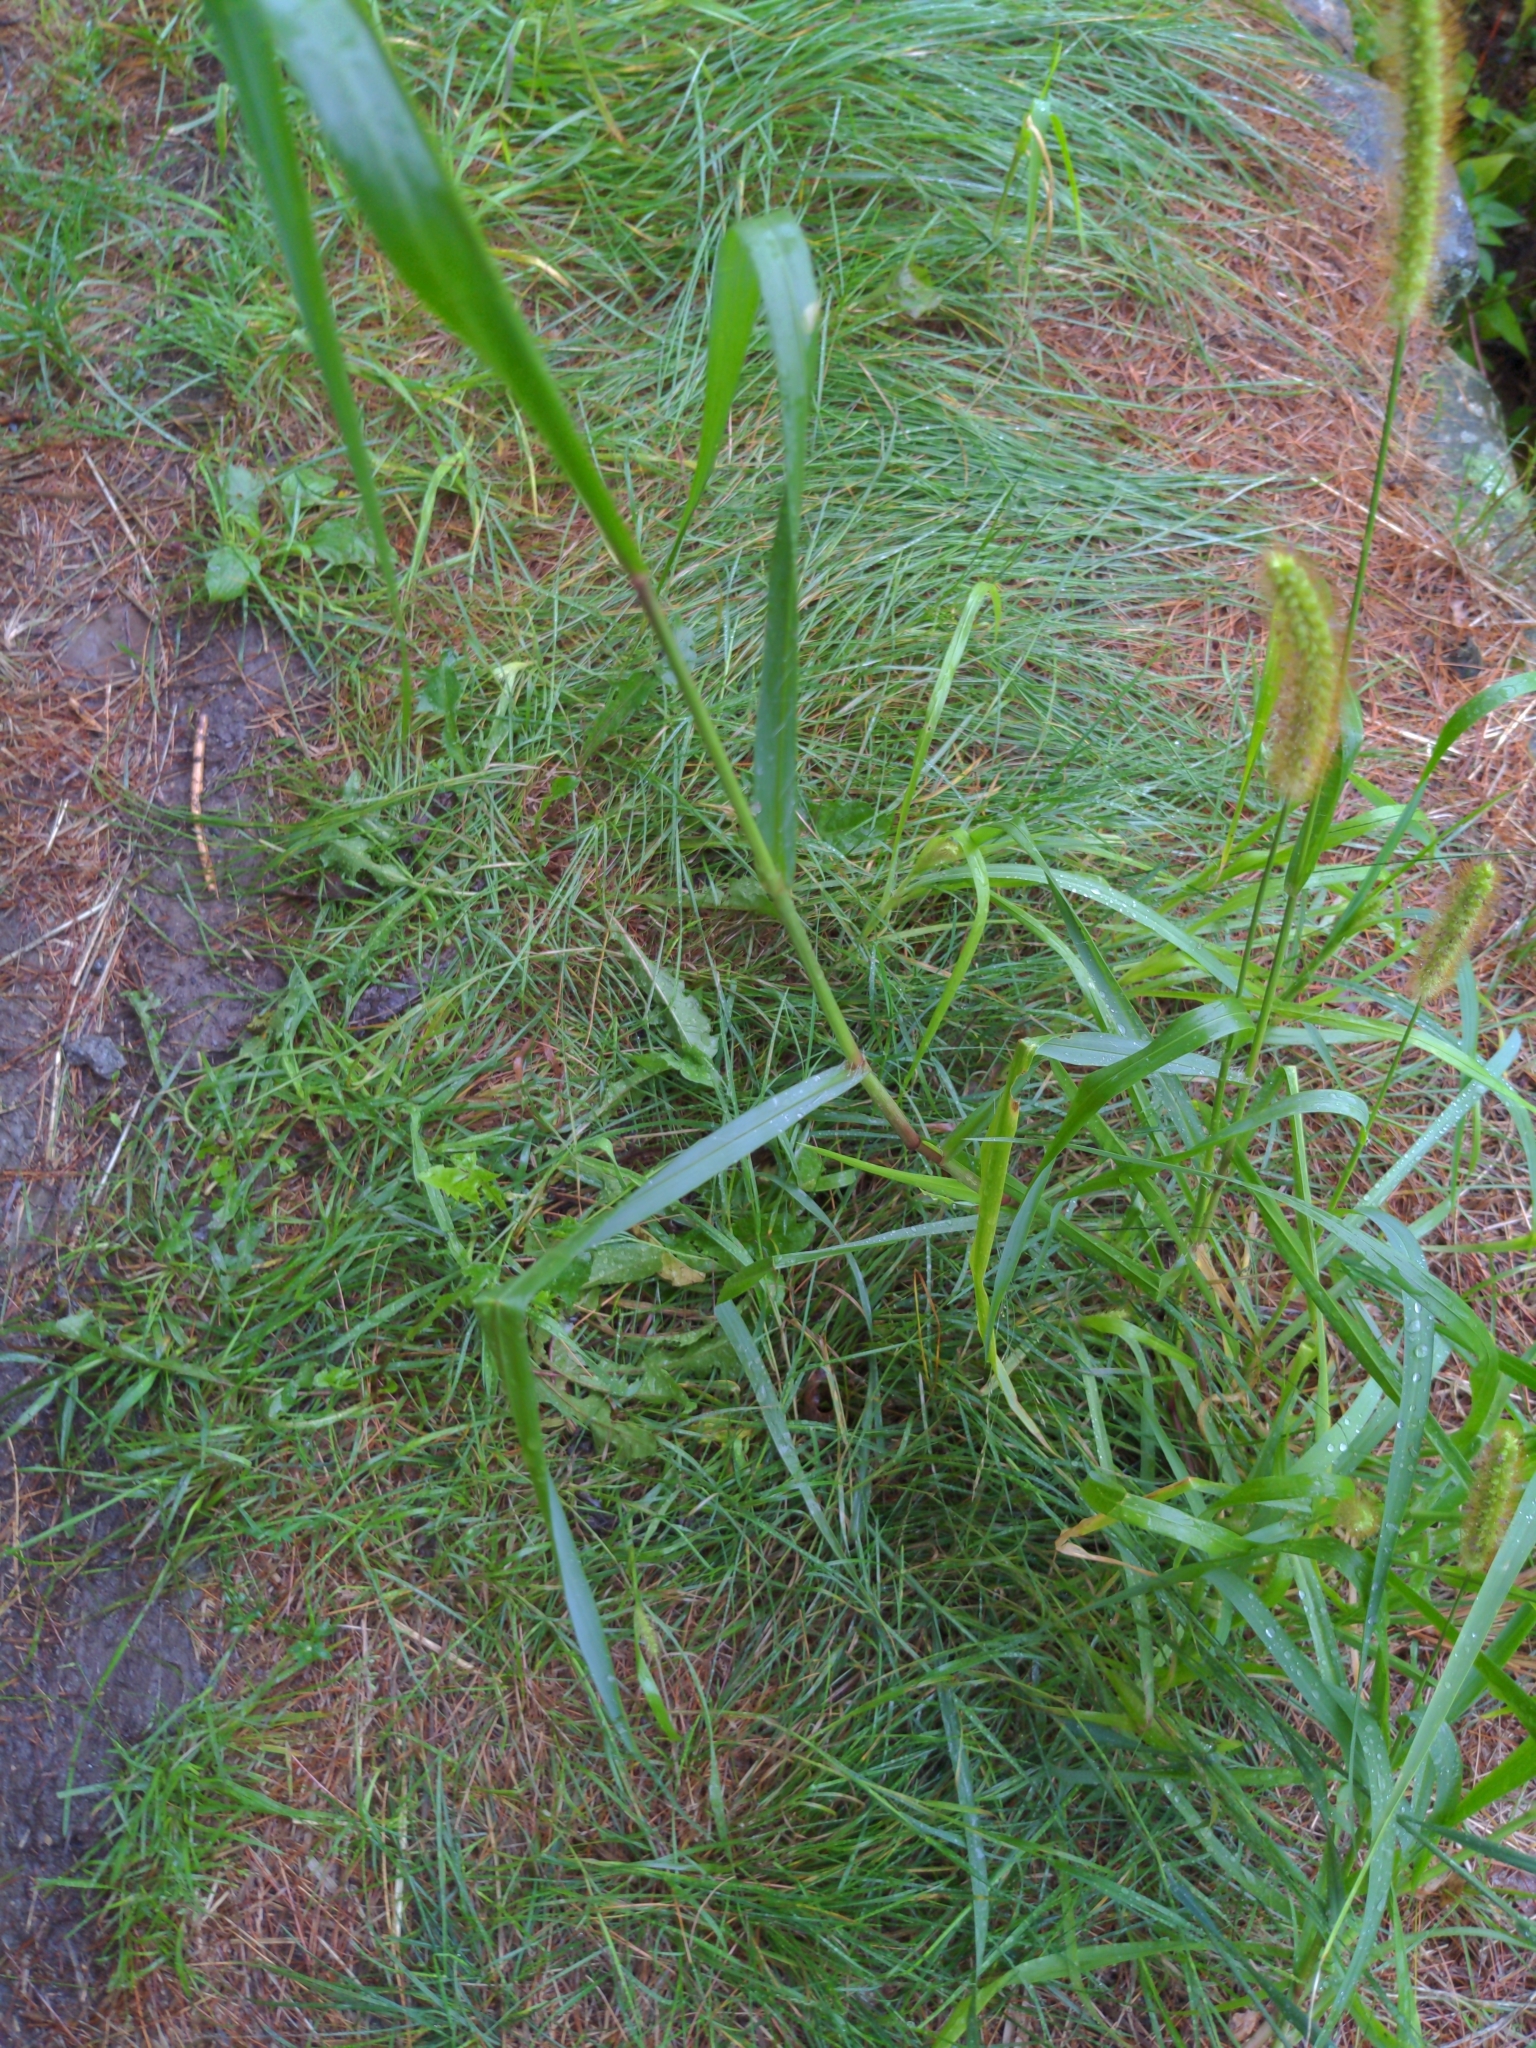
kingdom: Plantae
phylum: Tracheophyta
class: Liliopsida
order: Poales
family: Poaceae
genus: Setaria
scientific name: Setaria pumila
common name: Yellow bristle-grass
